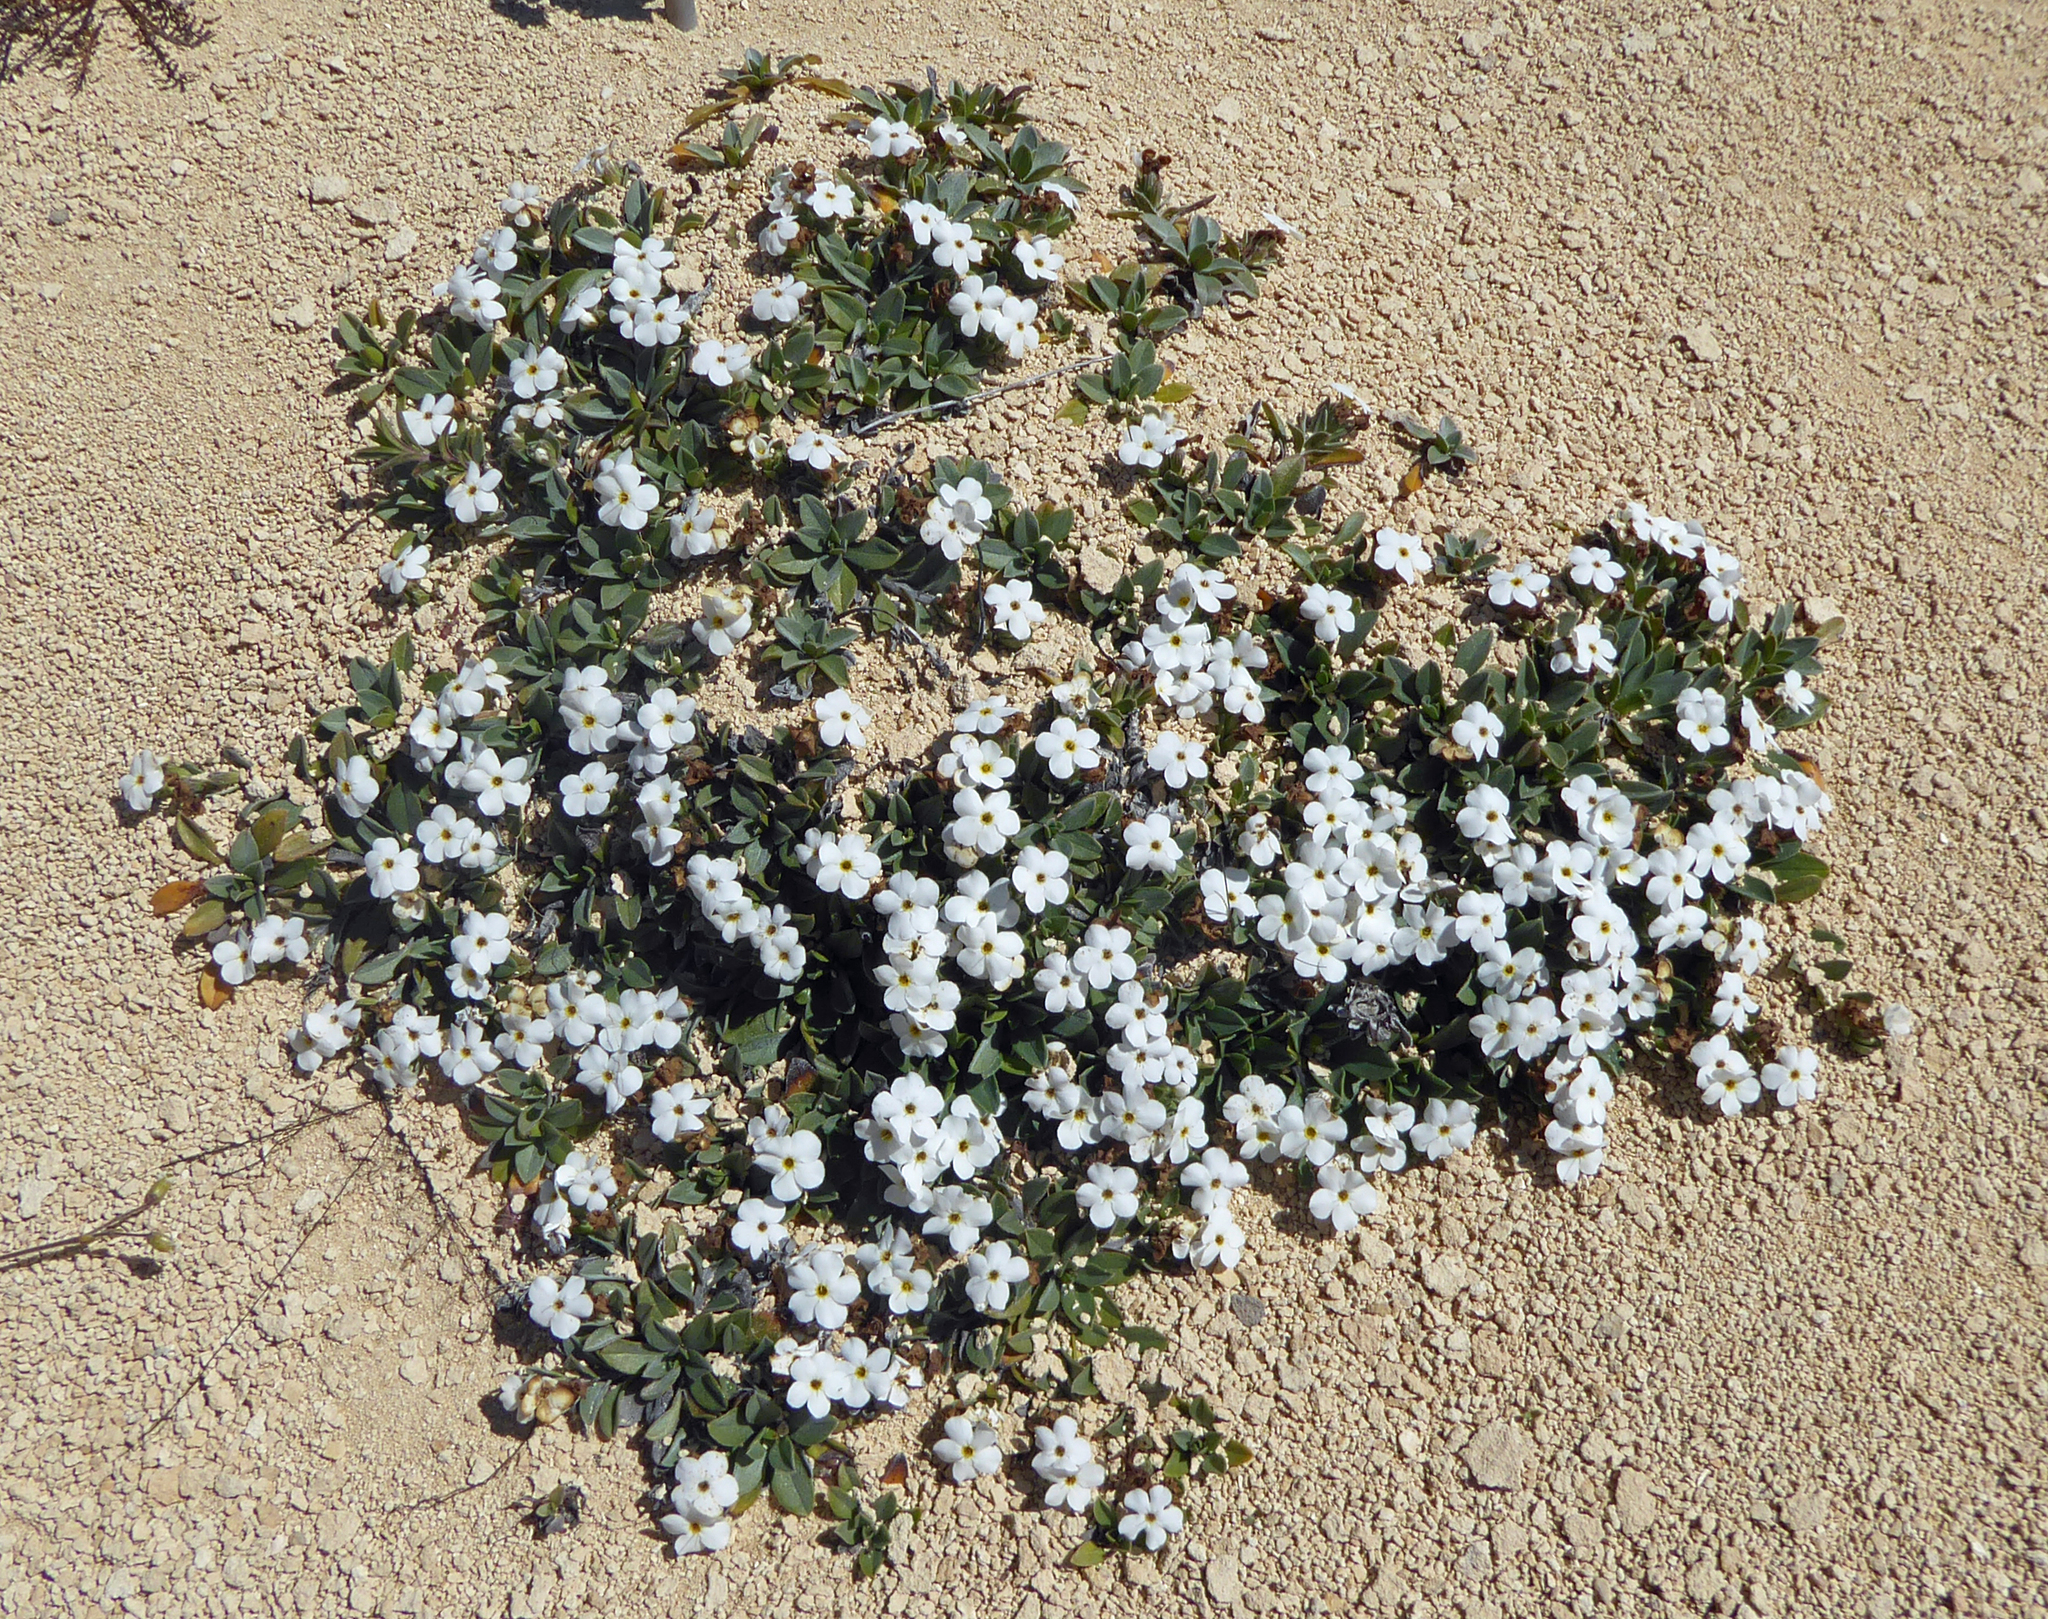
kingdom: Plantae
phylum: Tracheophyta
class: Magnoliopsida
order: Boraginales
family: Boraginaceae
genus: Myosotis
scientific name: Myosotis colensoi
